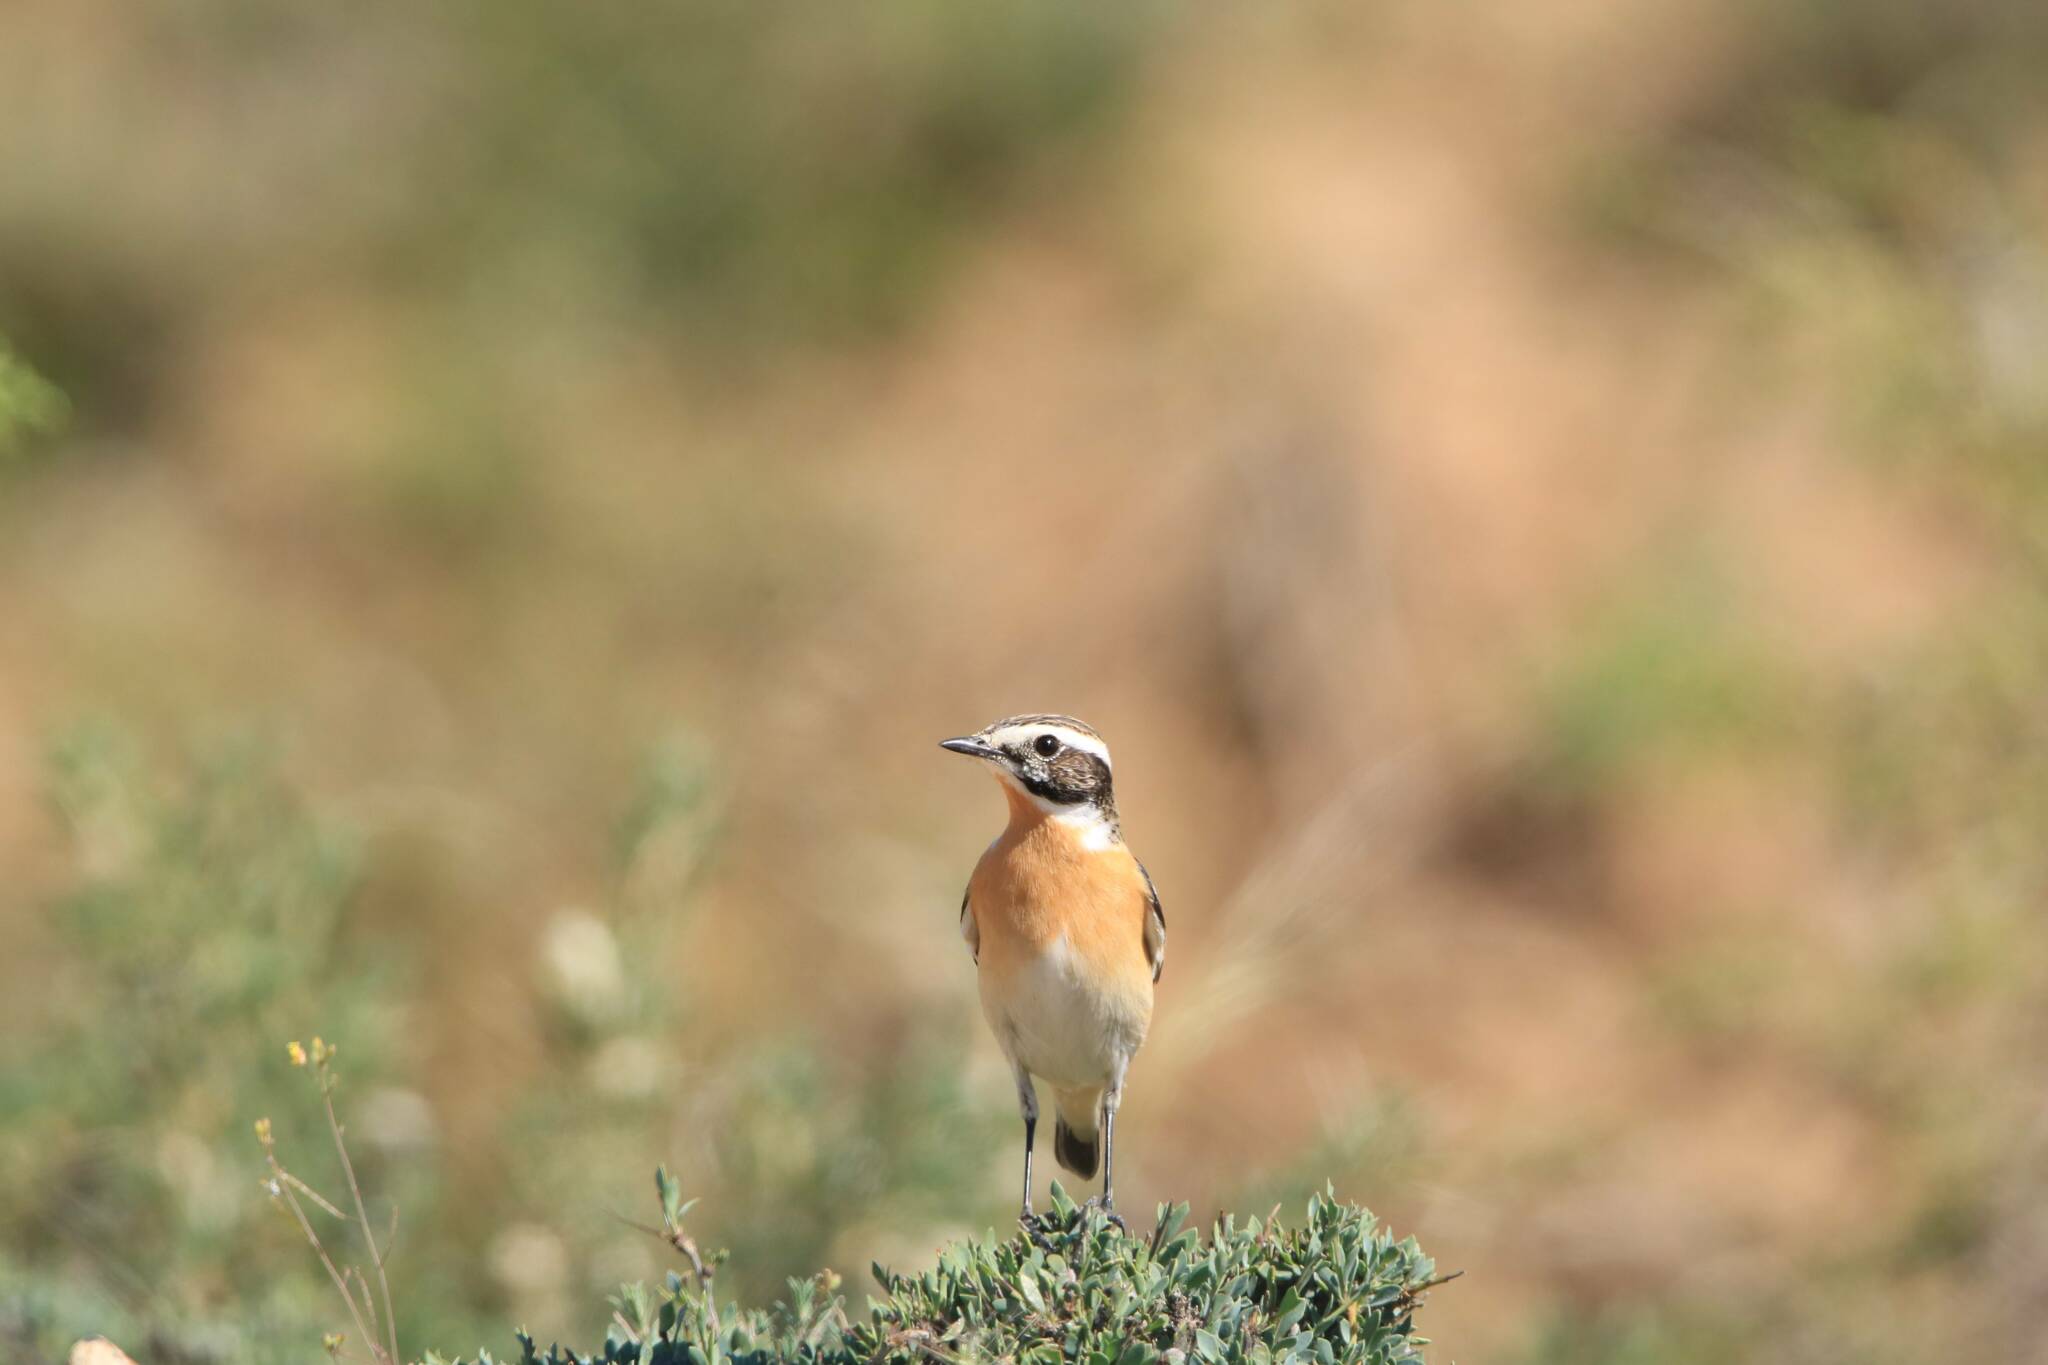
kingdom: Animalia
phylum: Chordata
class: Aves
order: Passeriformes
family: Muscicapidae
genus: Saxicola
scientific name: Saxicola rubetra
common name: Whinchat
